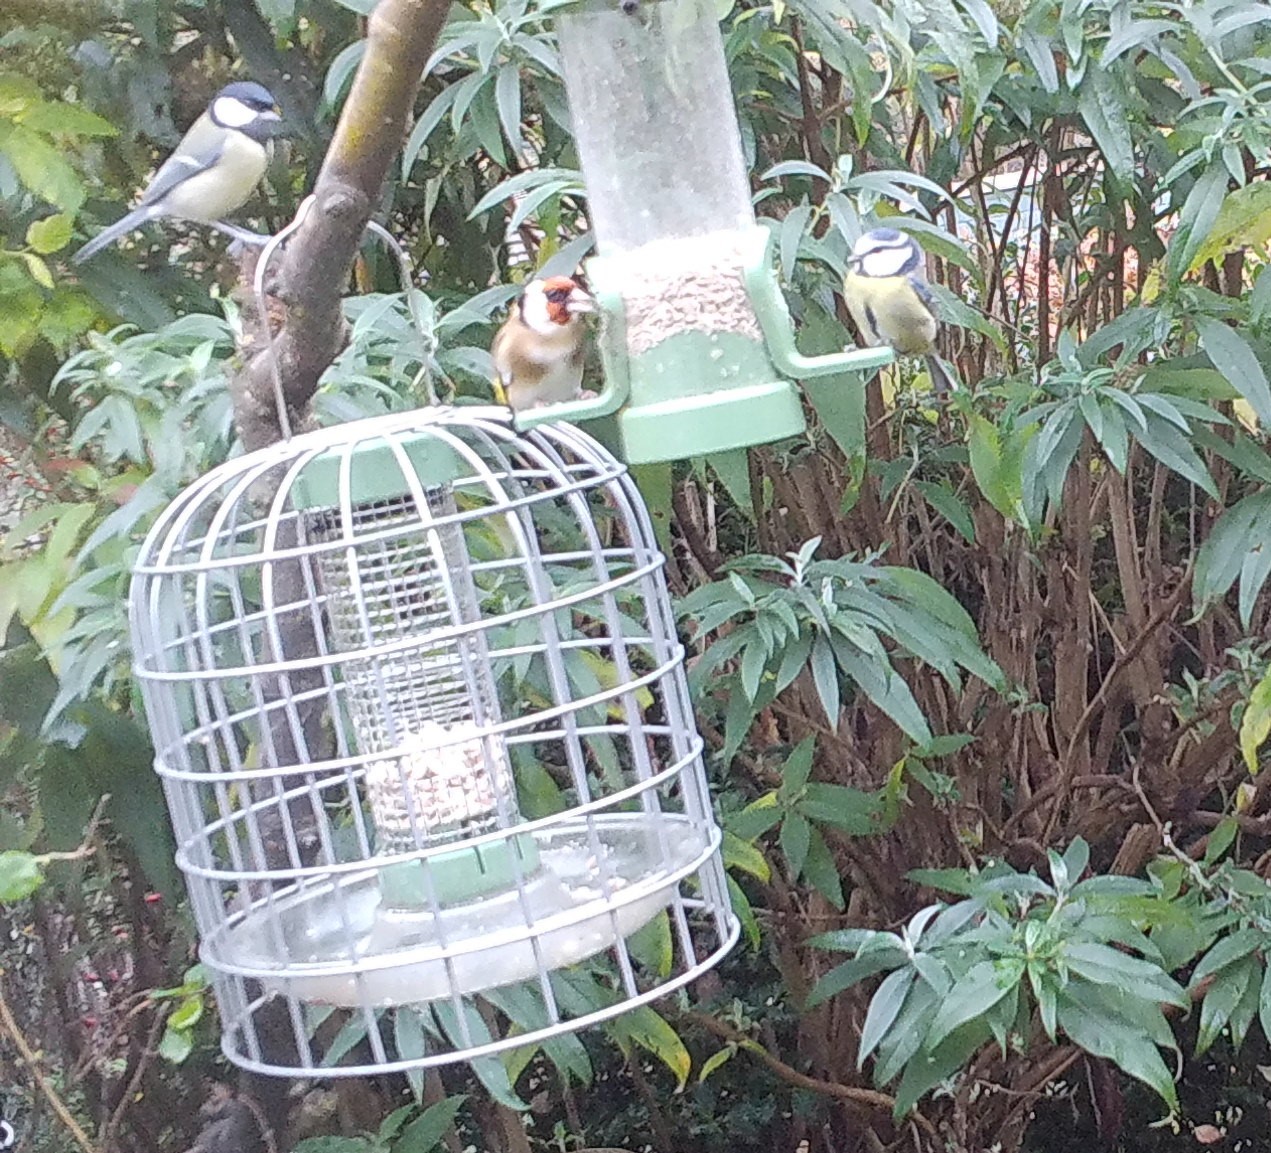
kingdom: Animalia
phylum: Chordata
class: Aves
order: Passeriformes
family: Paridae
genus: Parus
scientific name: Parus major
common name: Great tit
